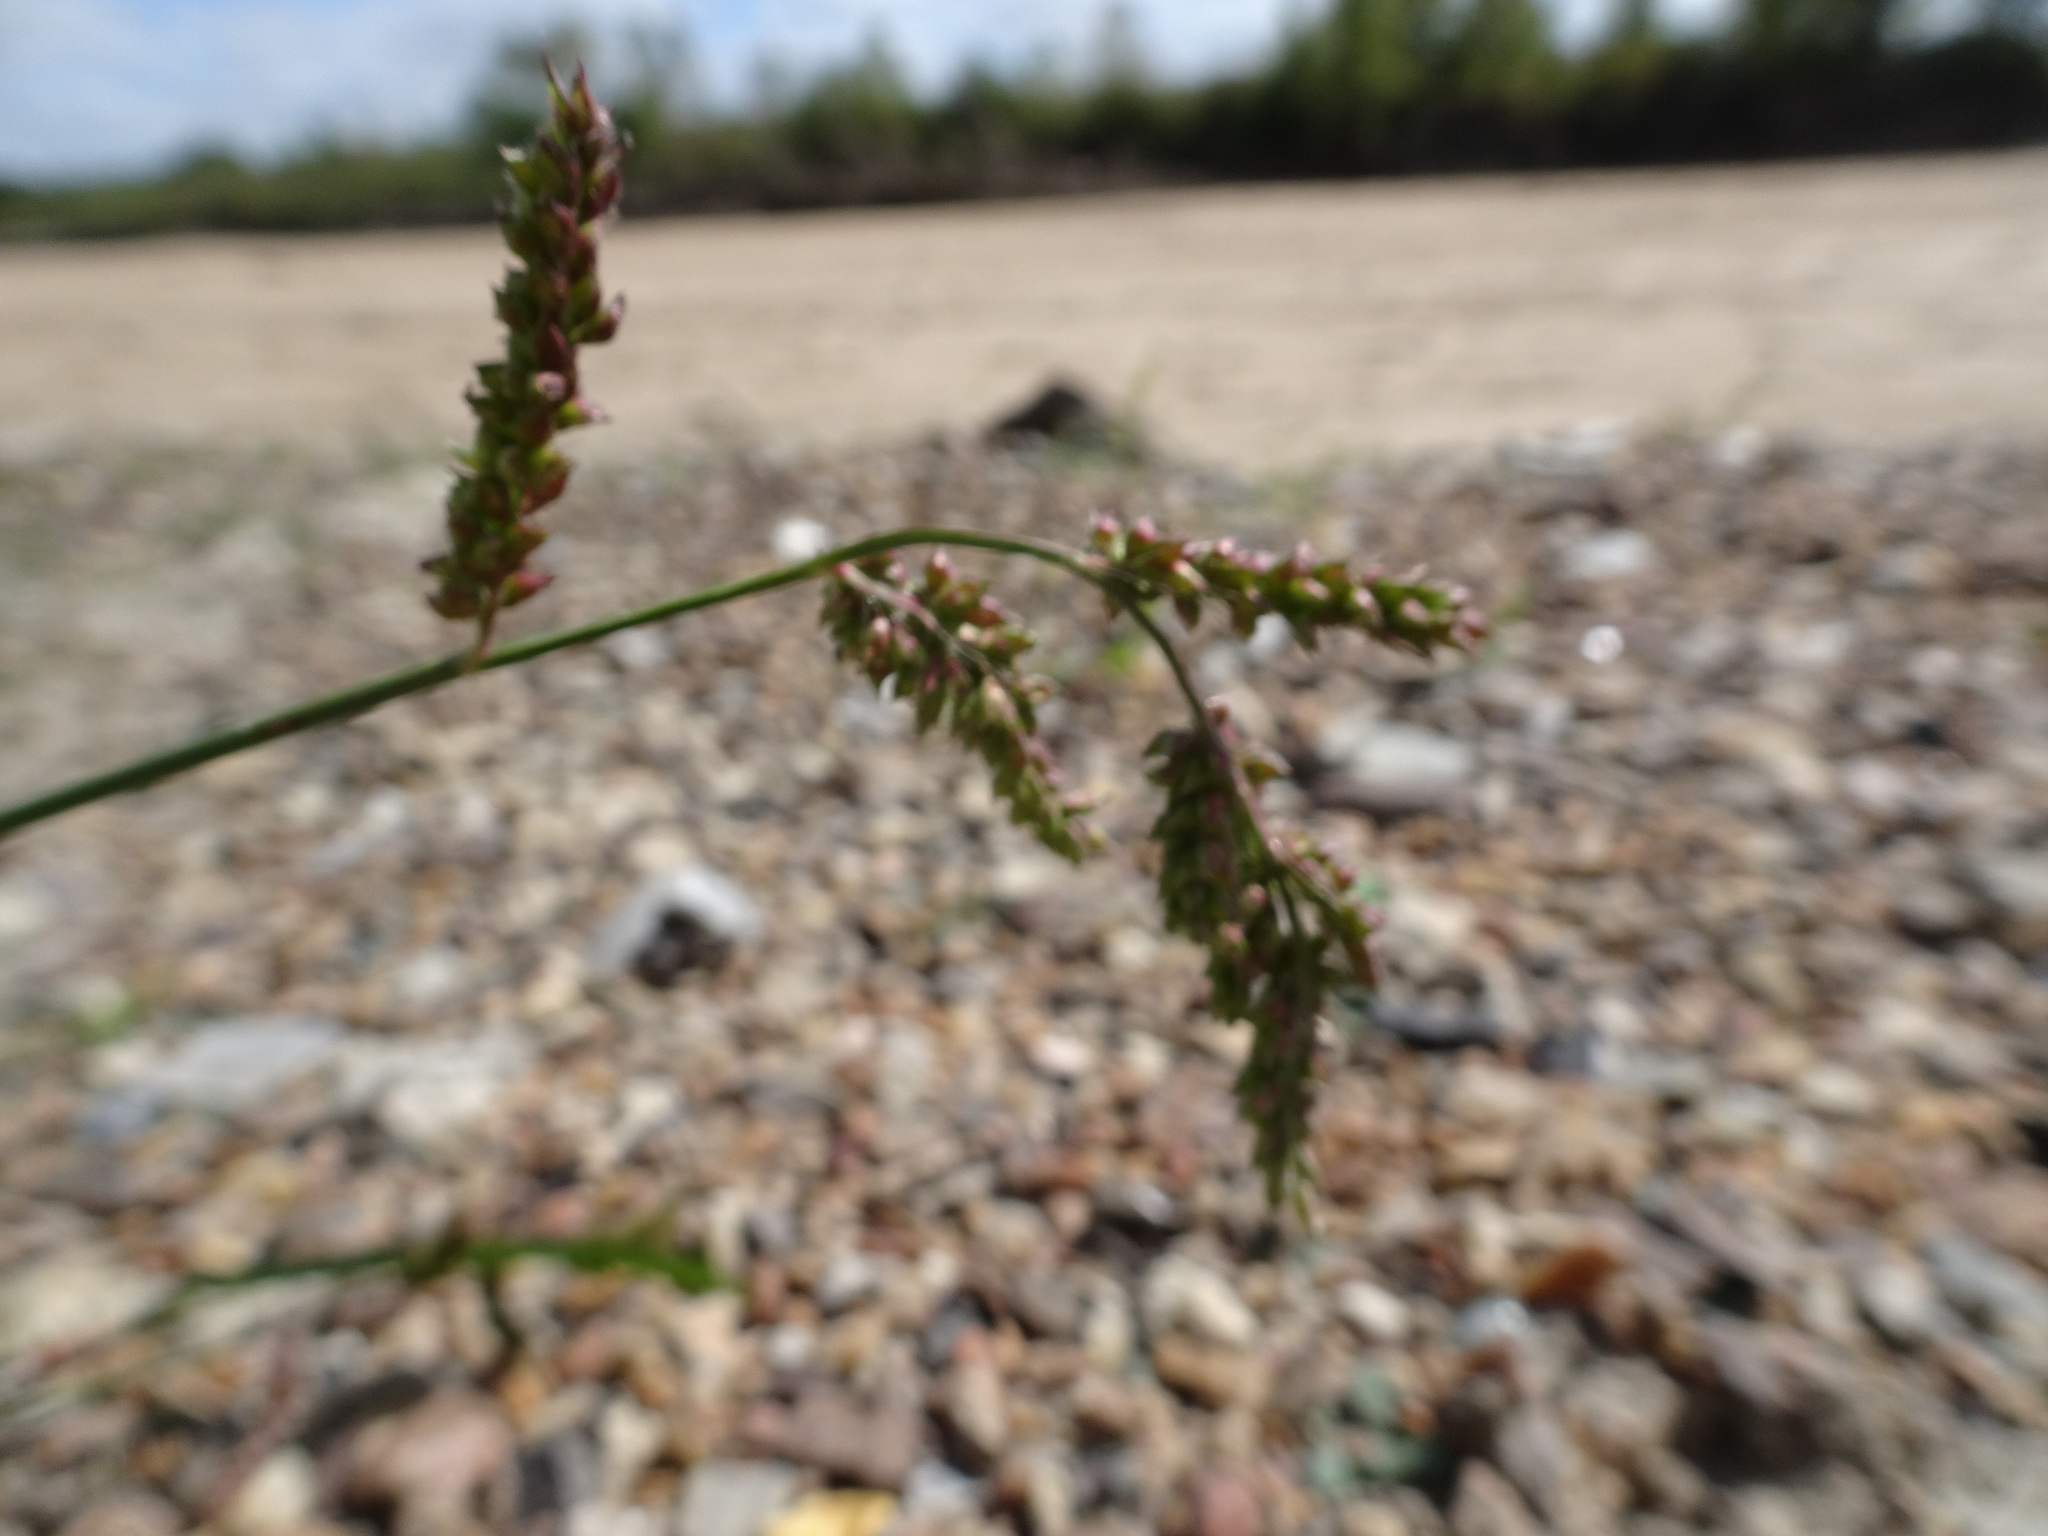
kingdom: Plantae
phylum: Tracheophyta
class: Liliopsida
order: Poales
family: Poaceae
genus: Echinochloa
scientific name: Echinochloa
